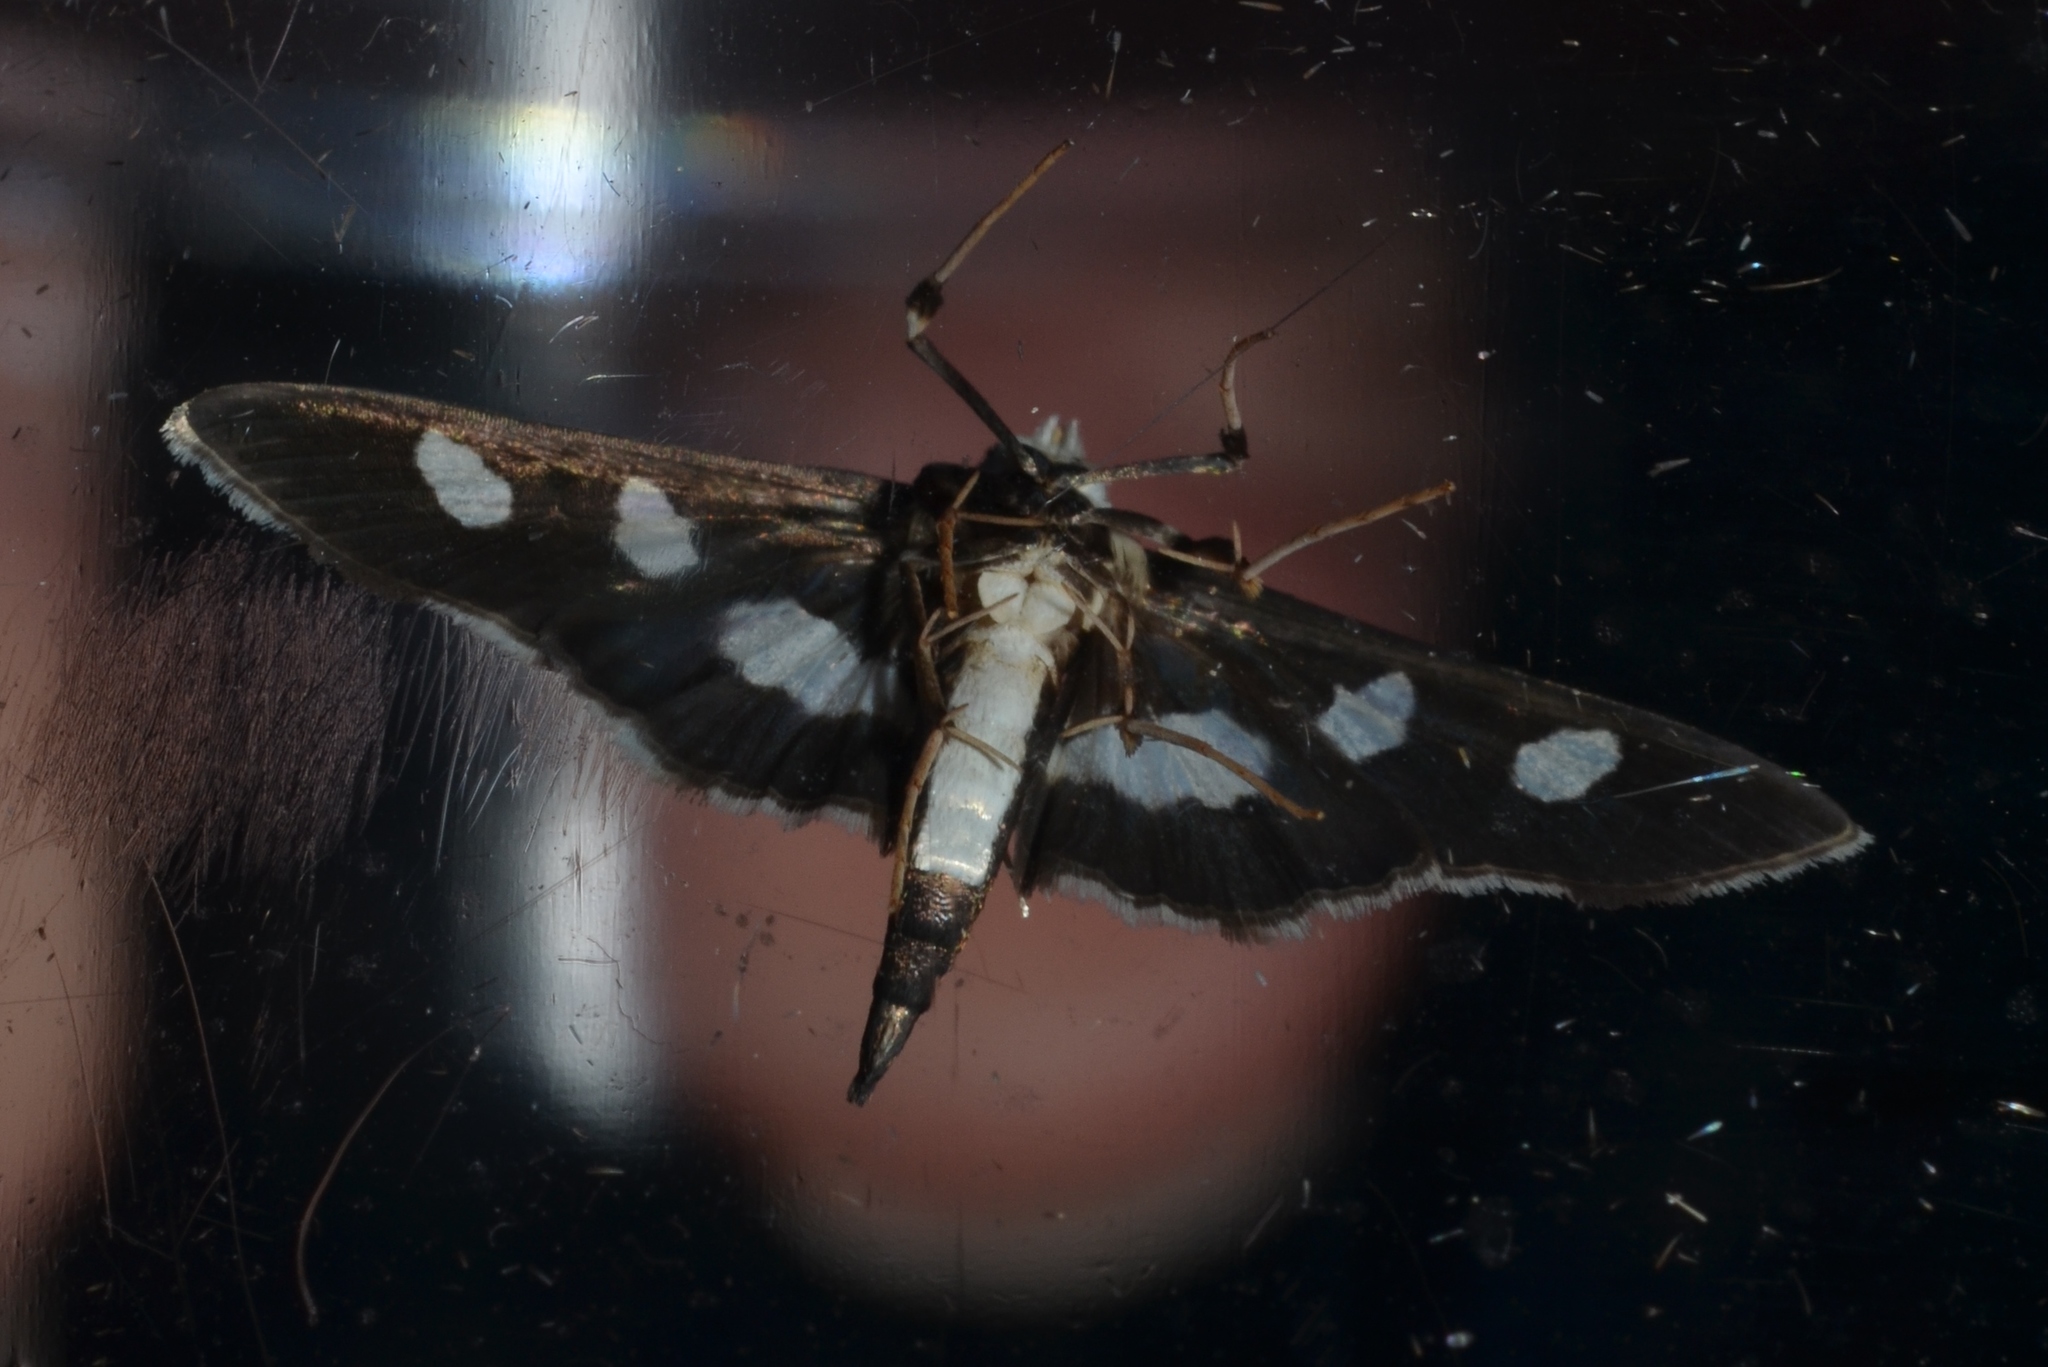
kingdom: Animalia
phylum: Arthropoda
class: Insecta
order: Lepidoptera
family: Crambidae
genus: Desmia
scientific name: Desmia funeralis
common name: Grape leaf folder moth
